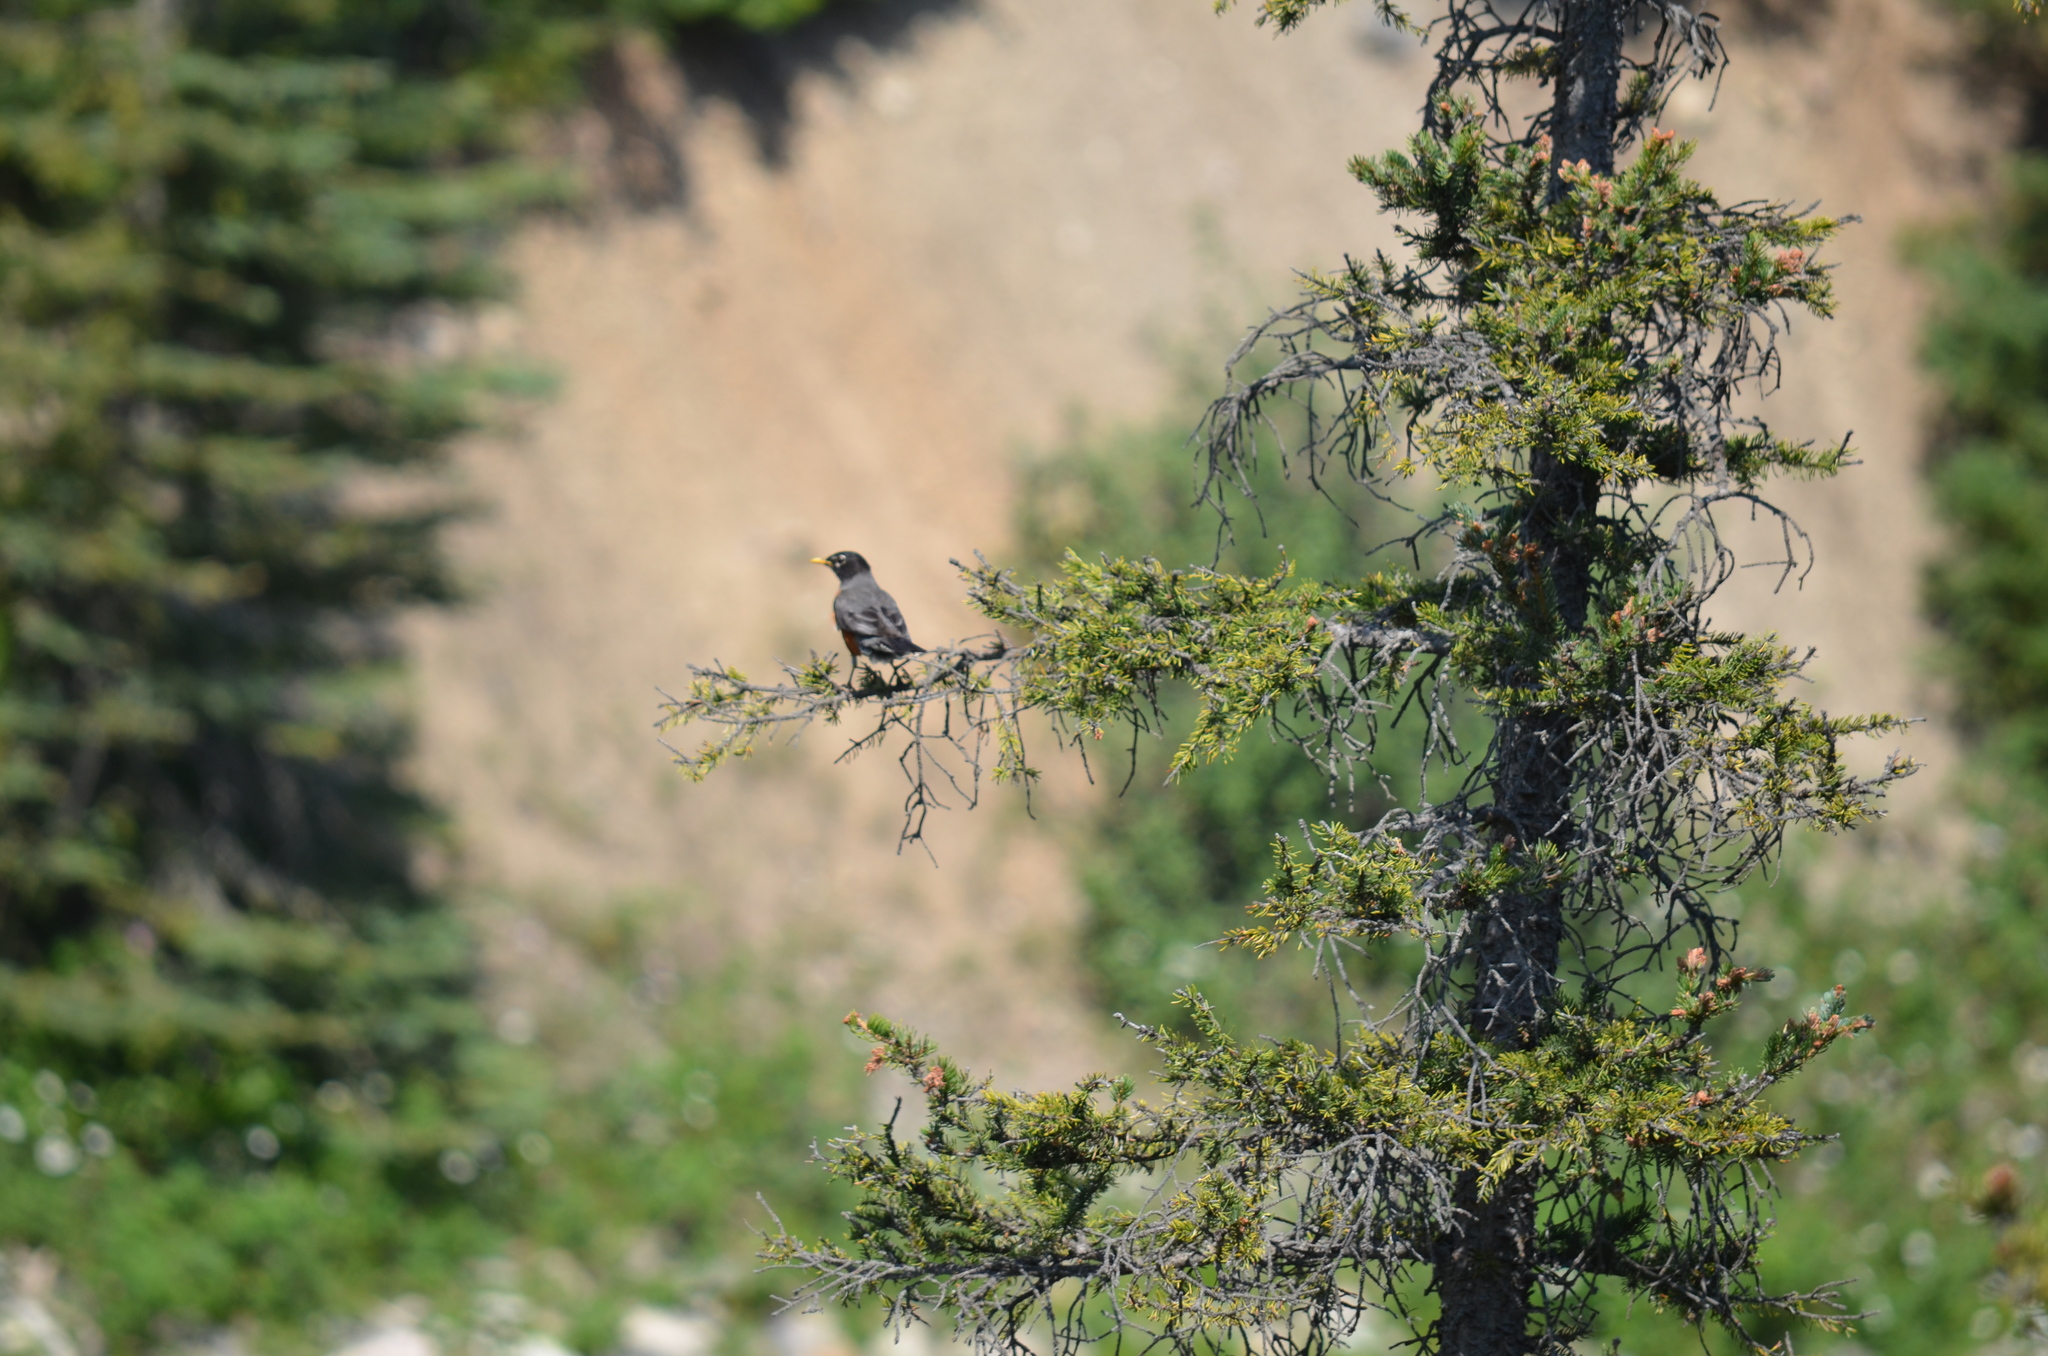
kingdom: Animalia
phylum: Chordata
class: Aves
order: Passeriformes
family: Turdidae
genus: Turdus
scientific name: Turdus migratorius
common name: American robin
